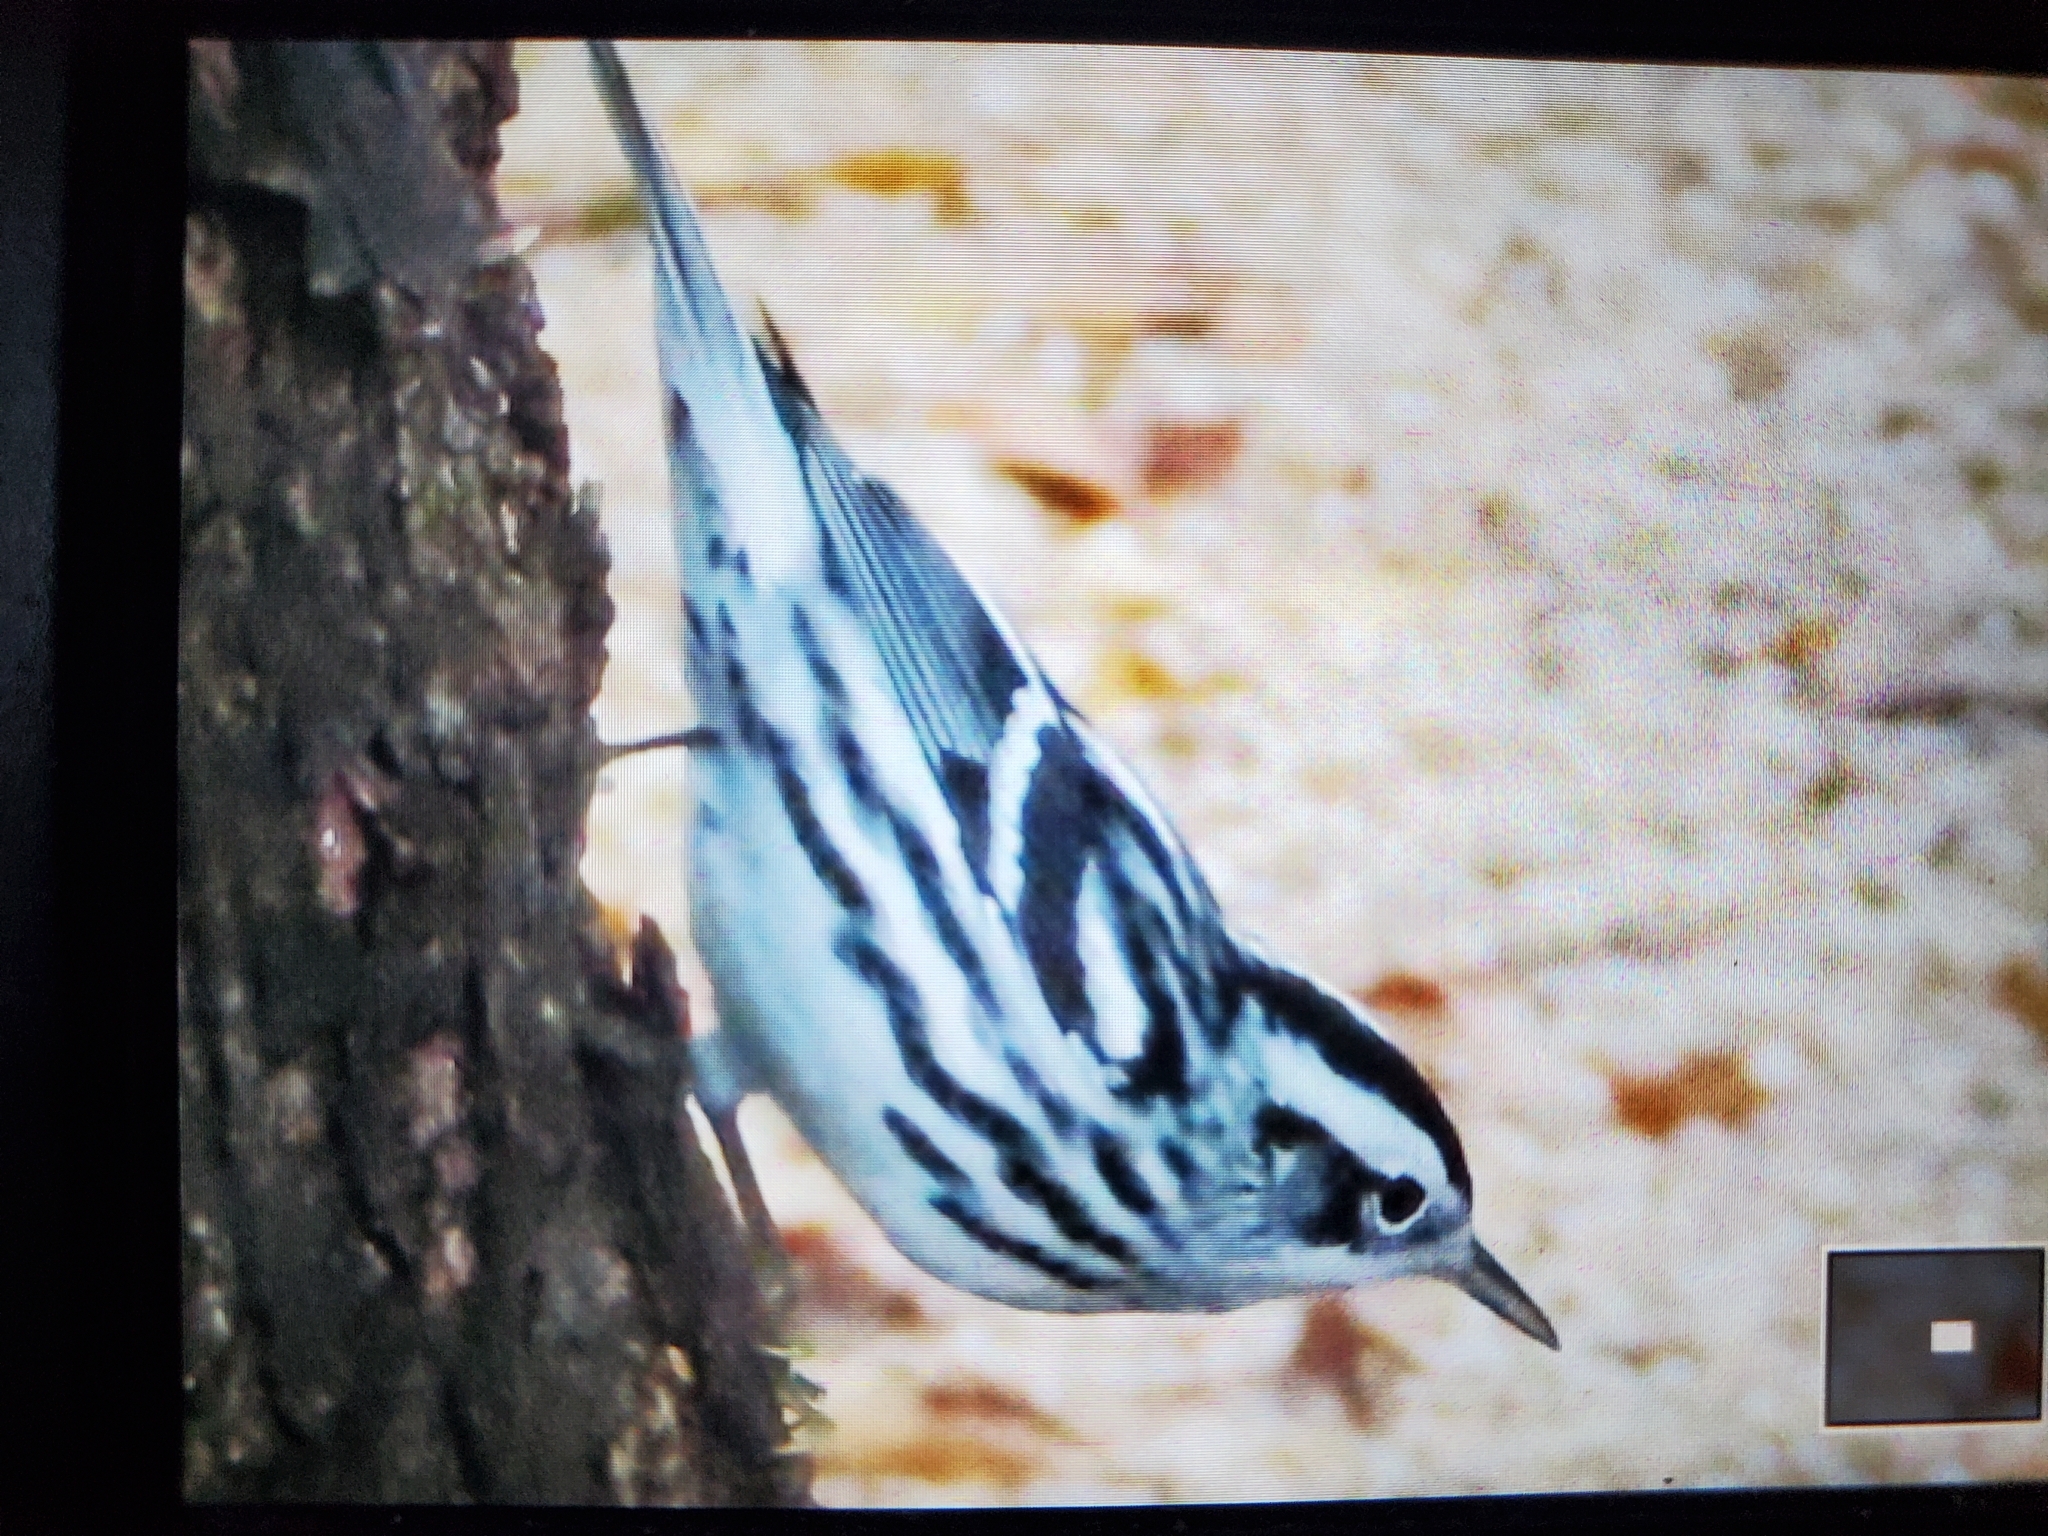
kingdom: Animalia
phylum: Chordata
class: Aves
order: Passeriformes
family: Parulidae
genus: Mniotilta
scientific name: Mniotilta varia
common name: Black-and-white warbler
